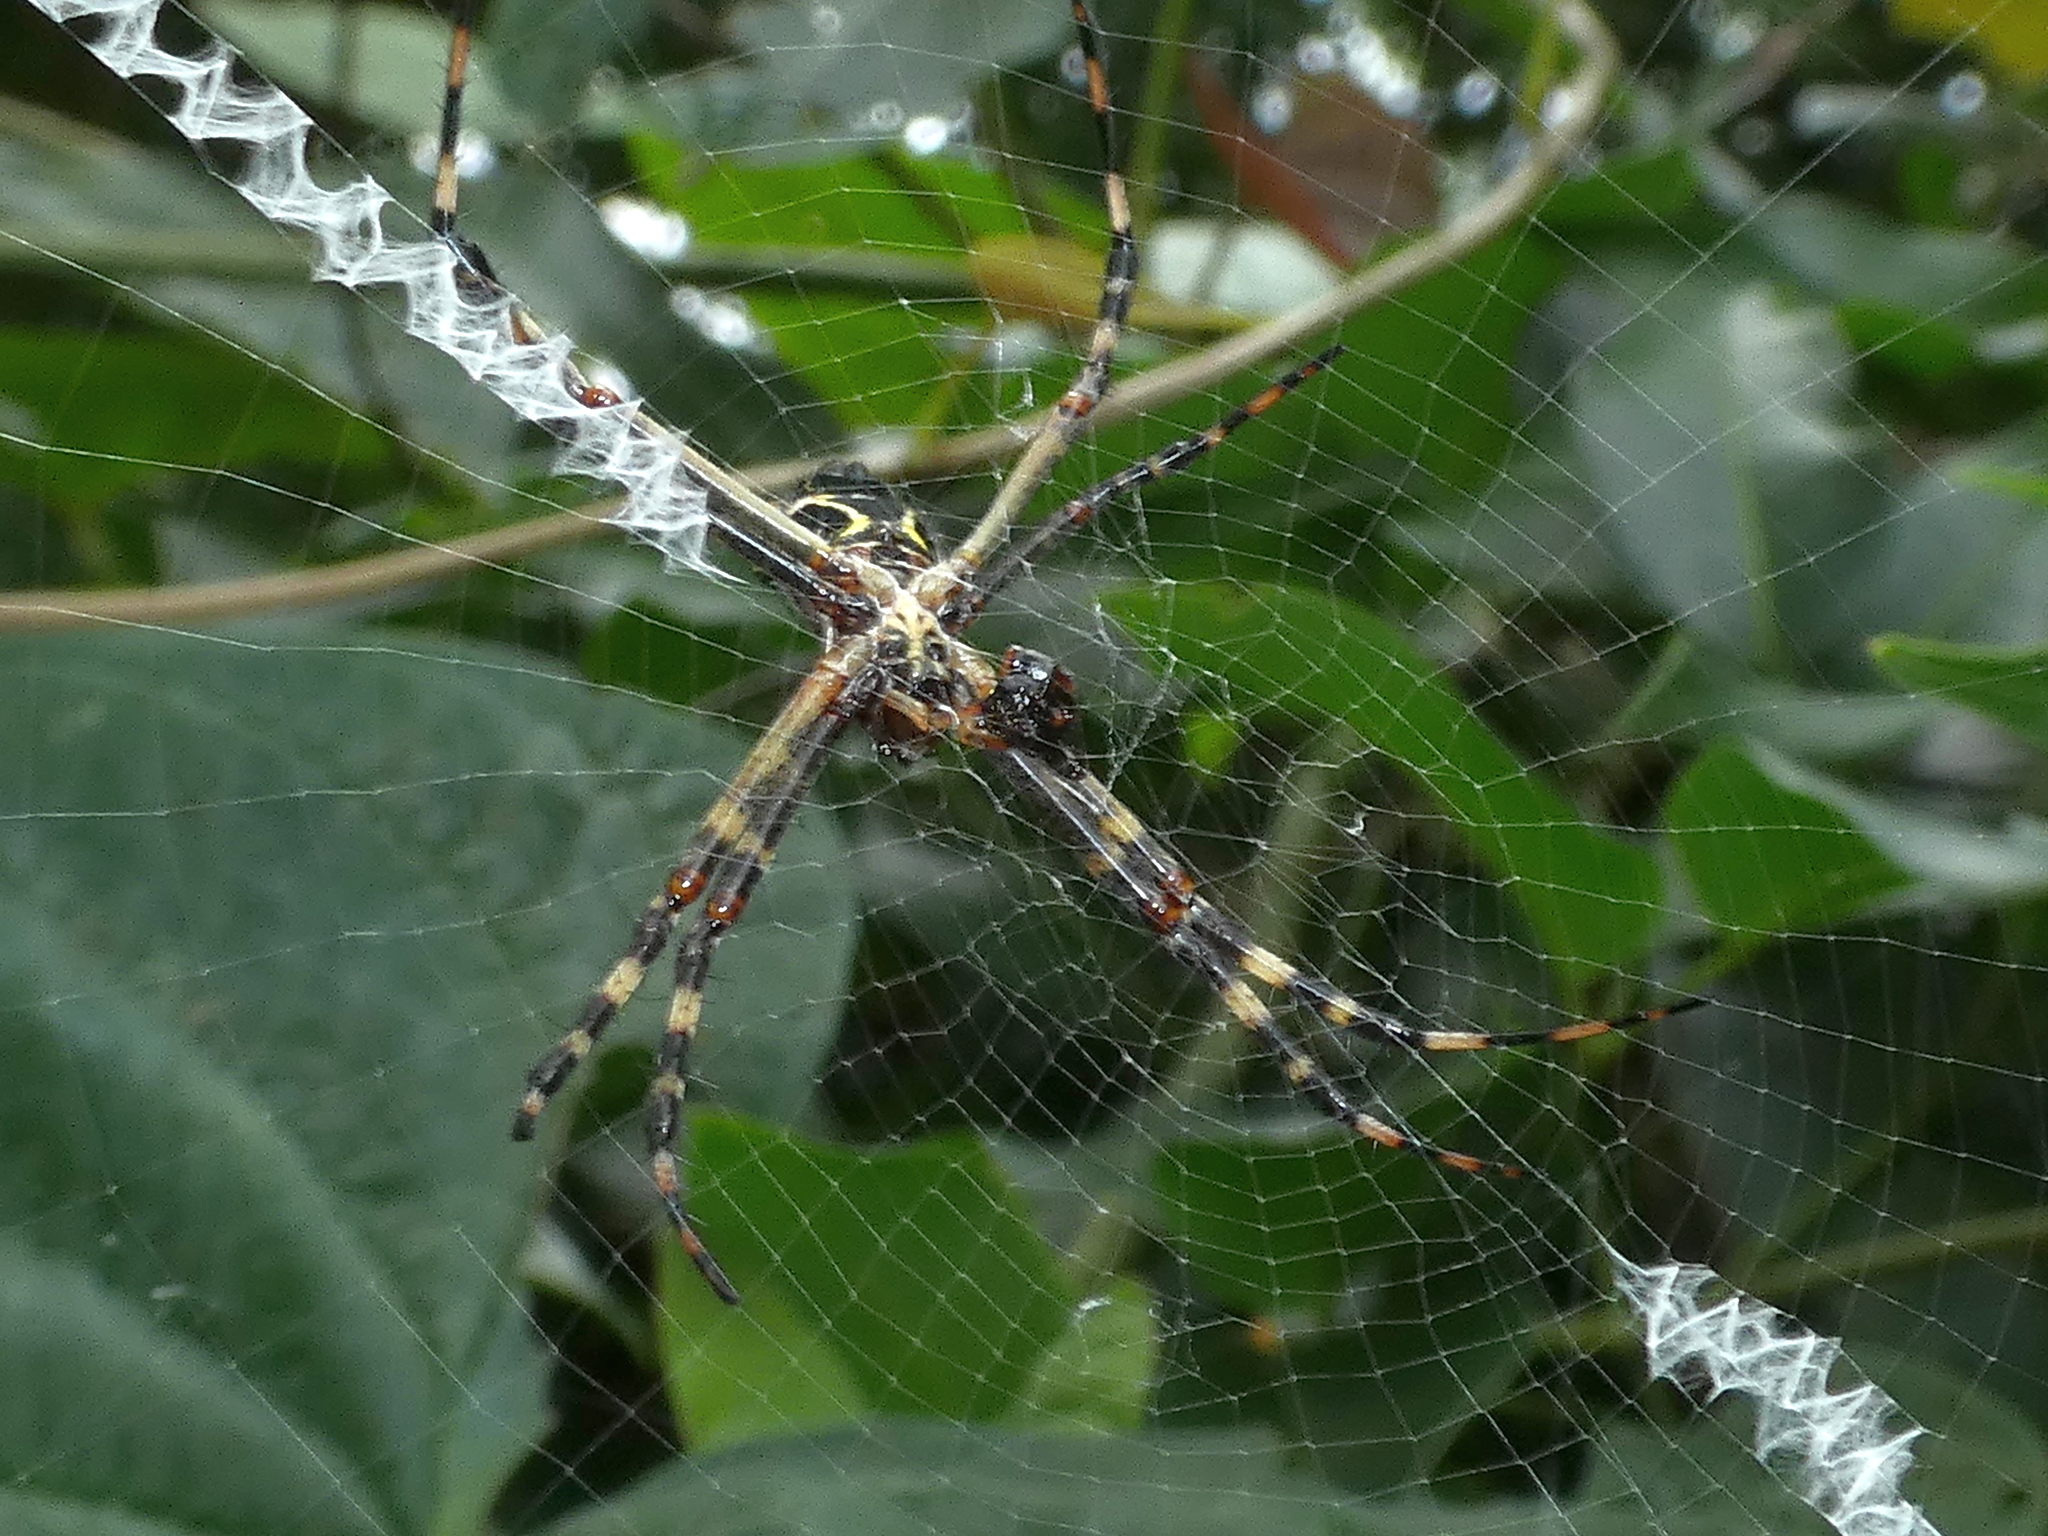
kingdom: Animalia
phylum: Arthropoda
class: Arachnida
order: Araneae
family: Araneidae
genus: Argiope
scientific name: Argiope argentata
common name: Orb weavers
